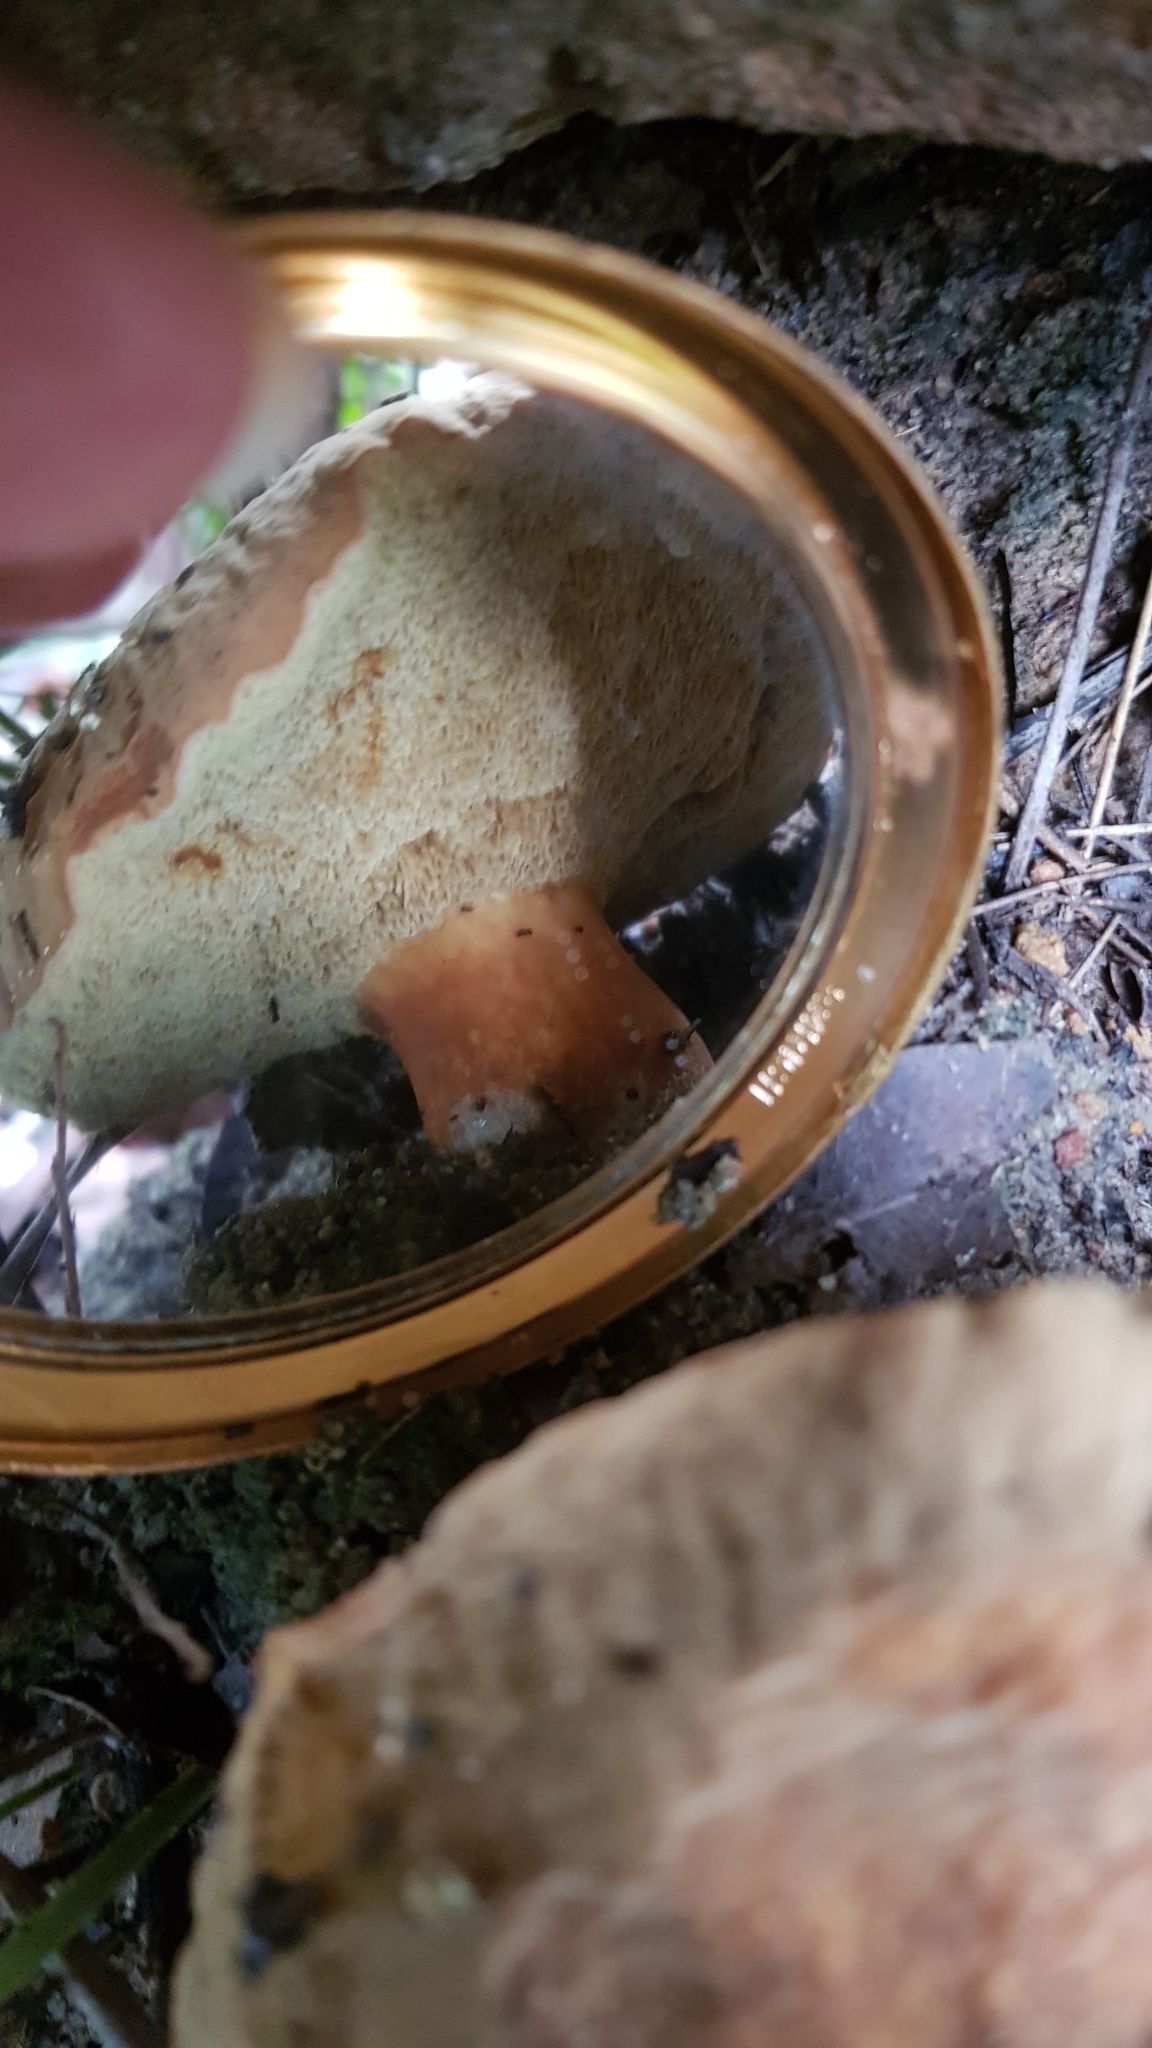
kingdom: Fungi
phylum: Basidiomycota
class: Agaricomycetes
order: Boletales
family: Boletaceae
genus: Tylopilus
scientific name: Tylopilus balloui
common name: Burnt-orange bolete
